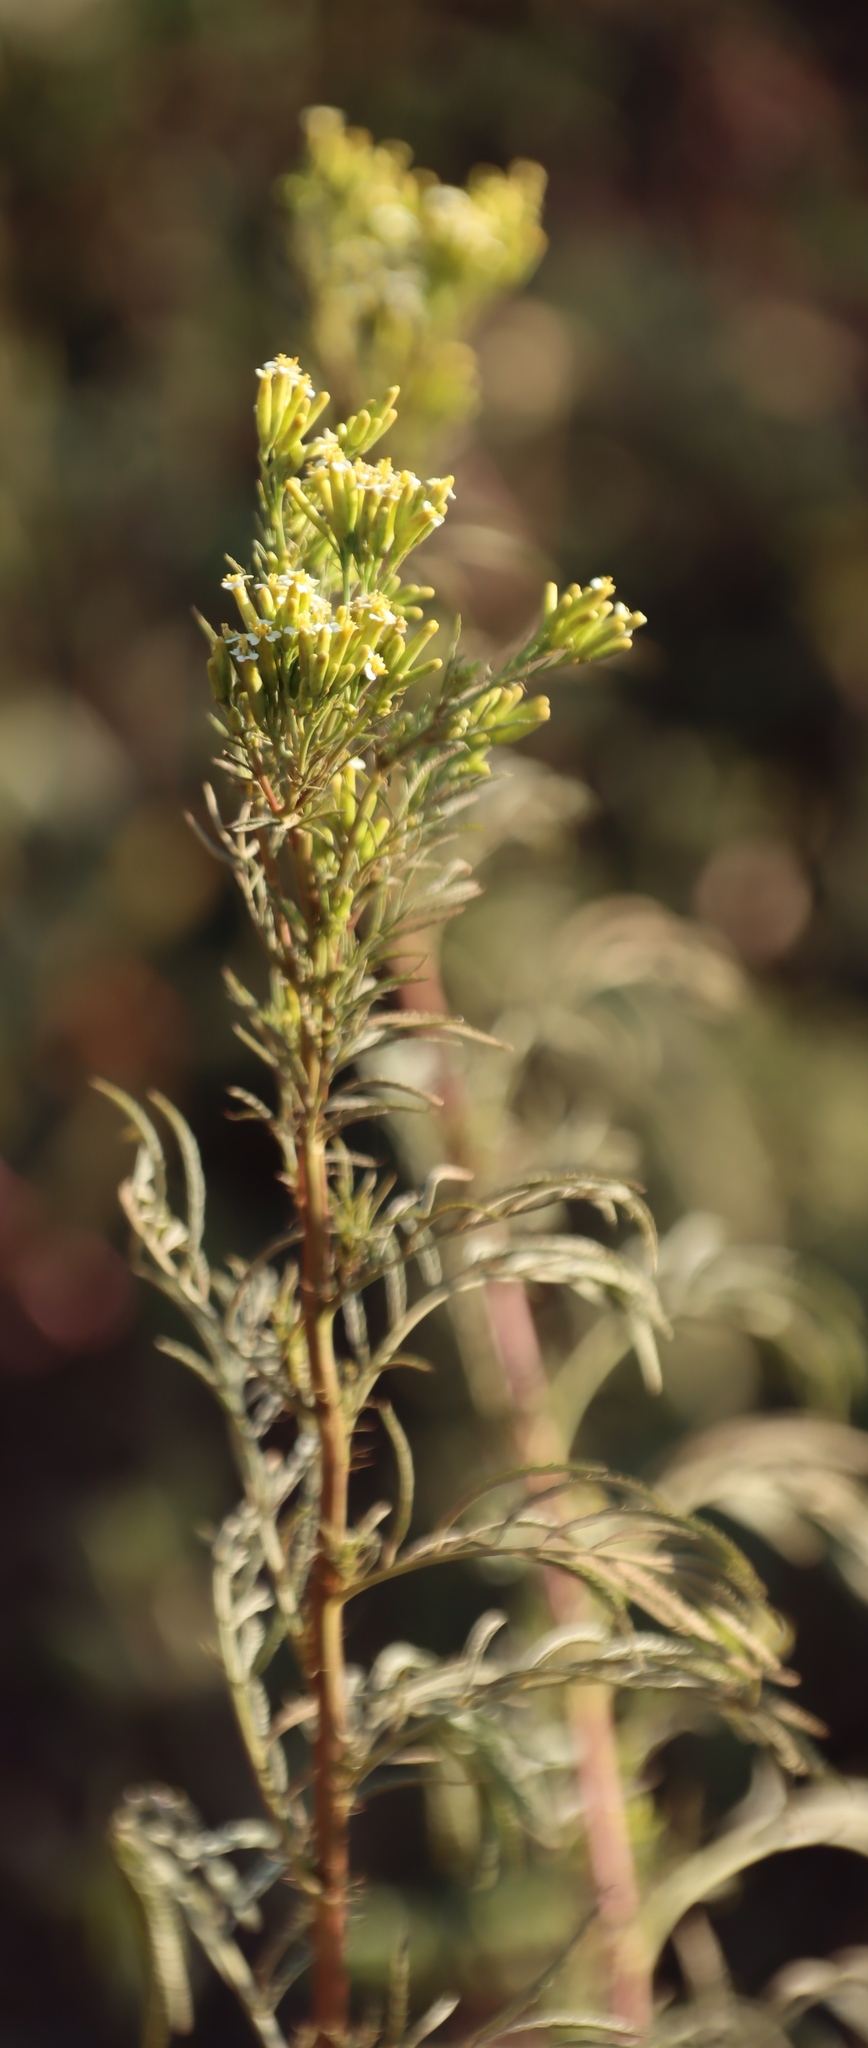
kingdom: Plantae
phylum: Tracheophyta
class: Magnoliopsida
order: Asterales
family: Asteraceae
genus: Tagetes
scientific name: Tagetes minuta
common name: Muster john henry
